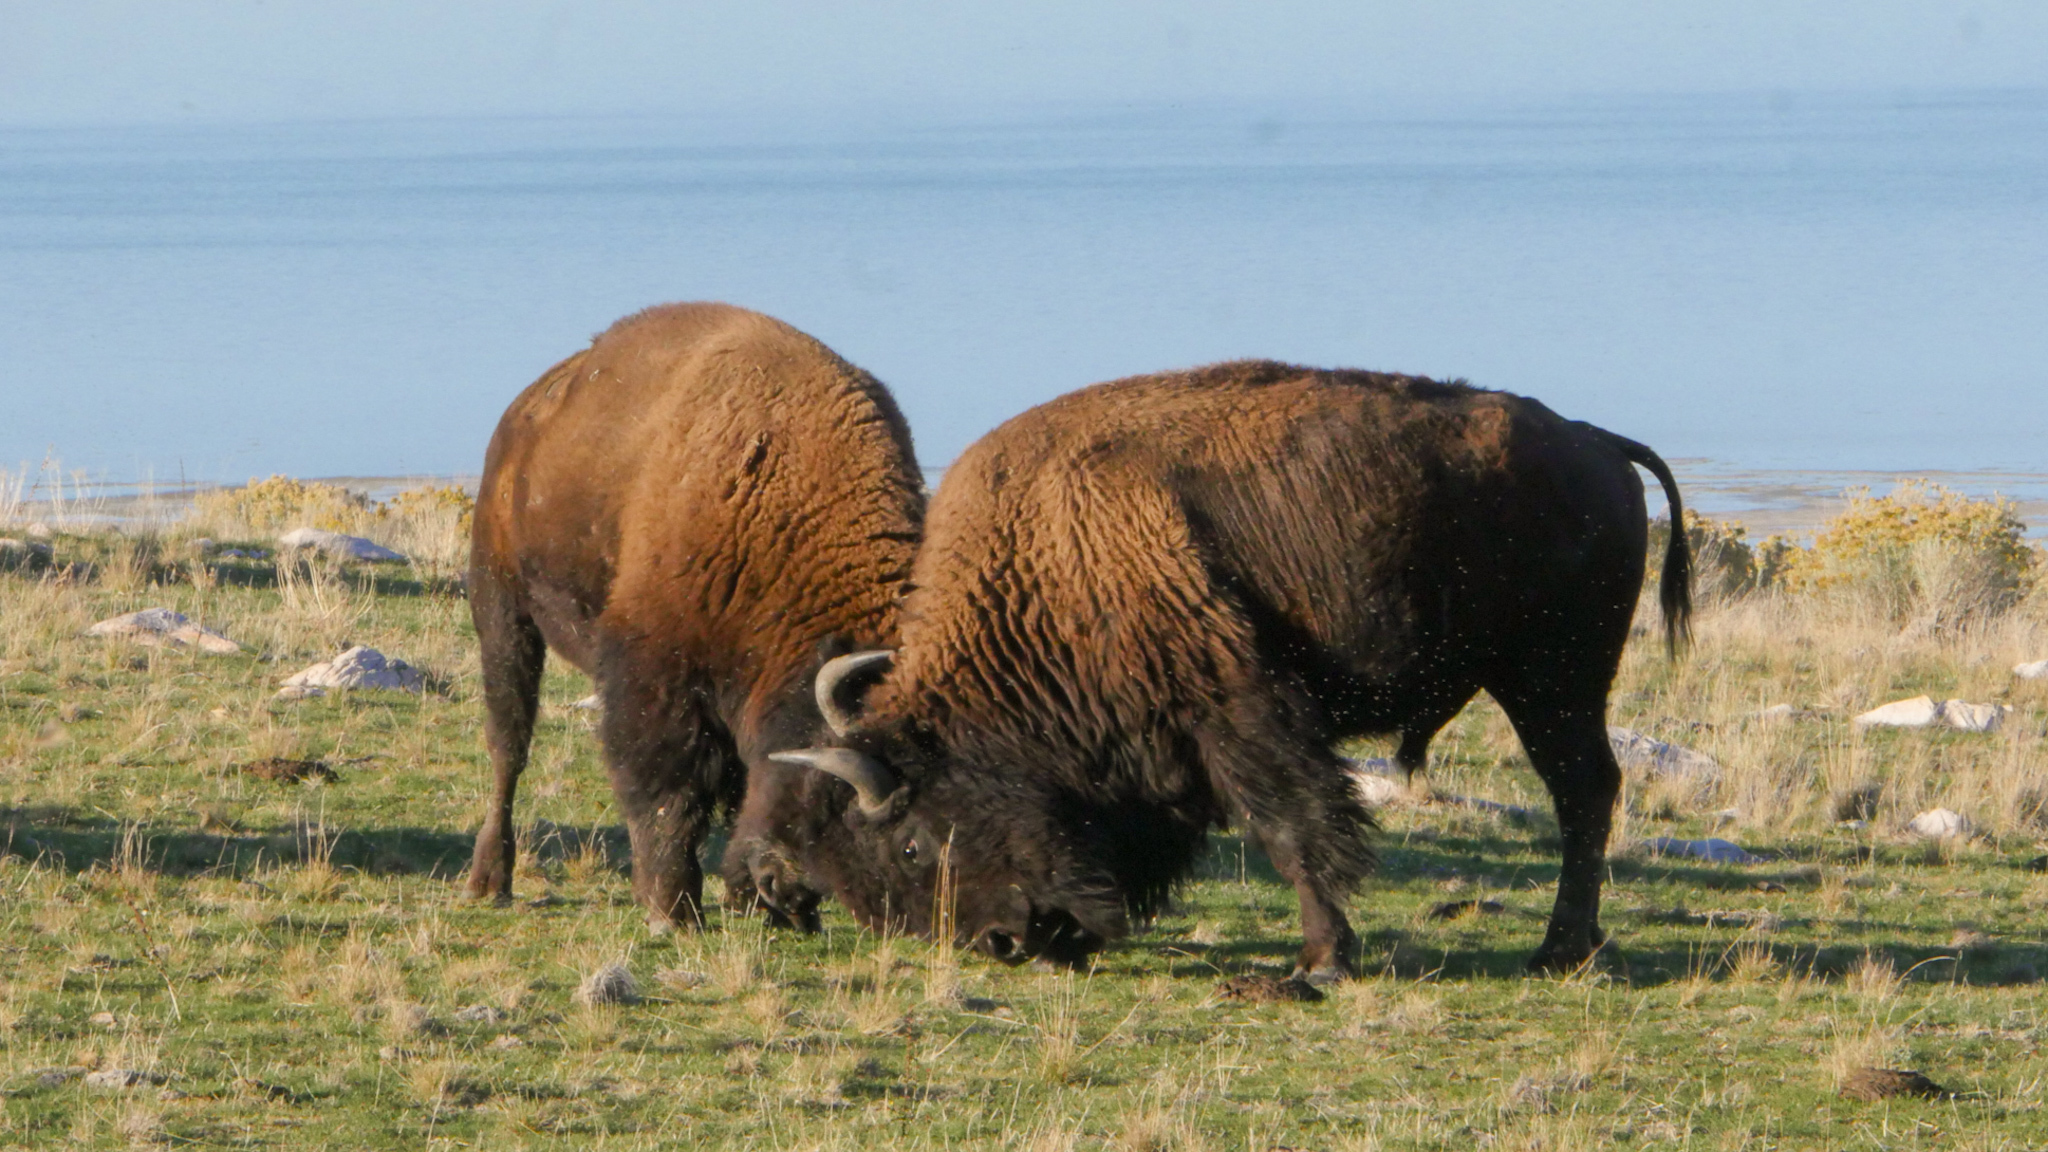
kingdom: Animalia
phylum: Chordata
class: Mammalia
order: Artiodactyla
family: Bovidae
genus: Bison
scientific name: Bison bison
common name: American bison
